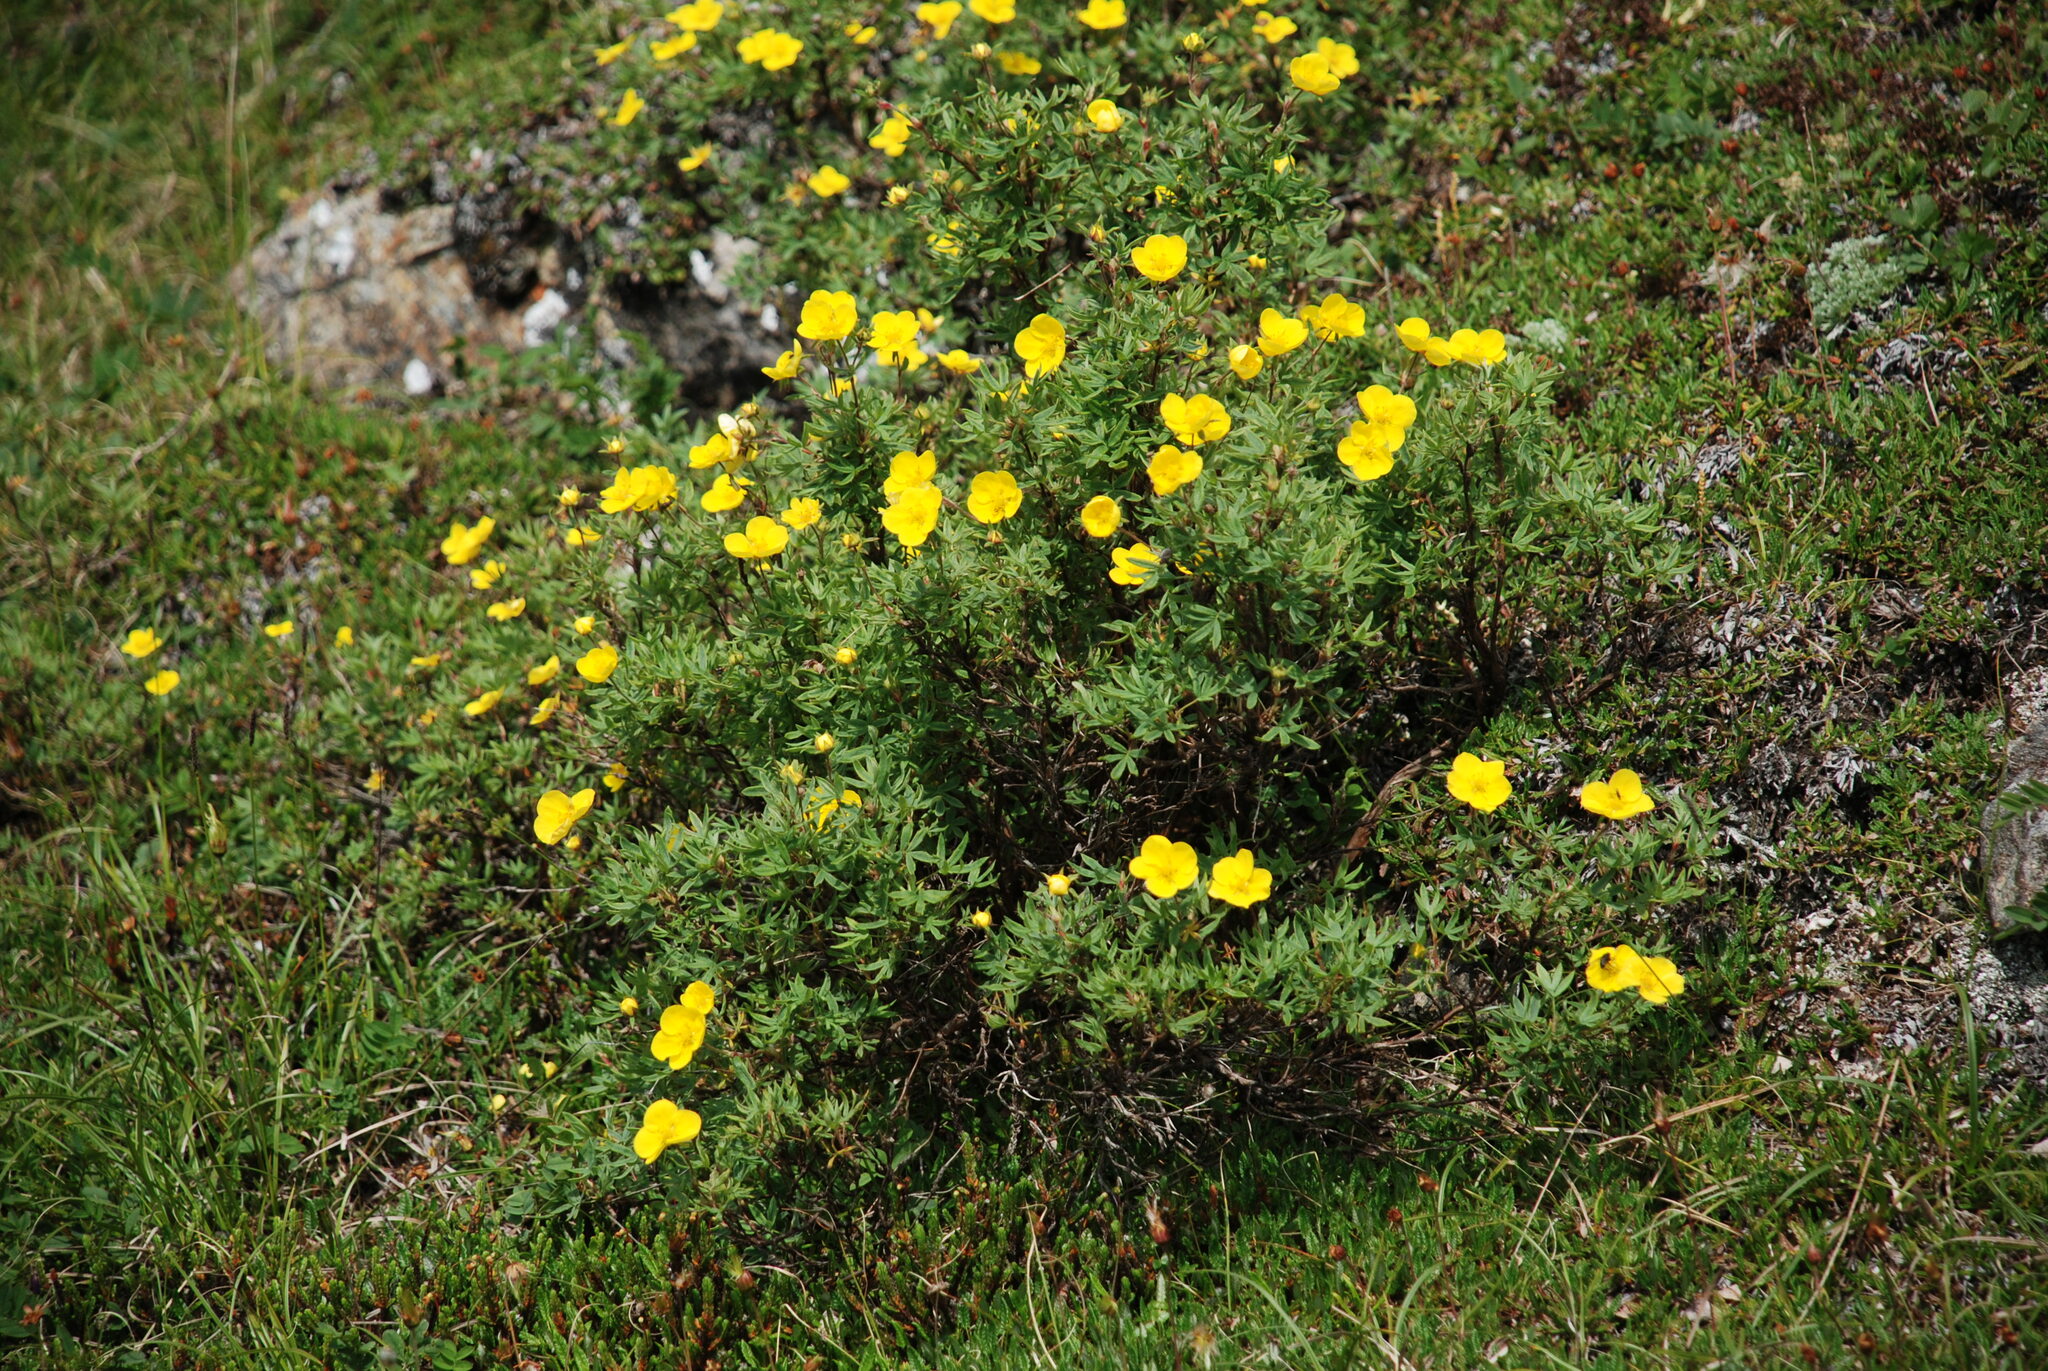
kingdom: Plantae
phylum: Tracheophyta
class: Magnoliopsida
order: Rosales
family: Rosaceae
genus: Dasiphora
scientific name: Dasiphora fruticosa
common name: Shrubby cinquefoil
